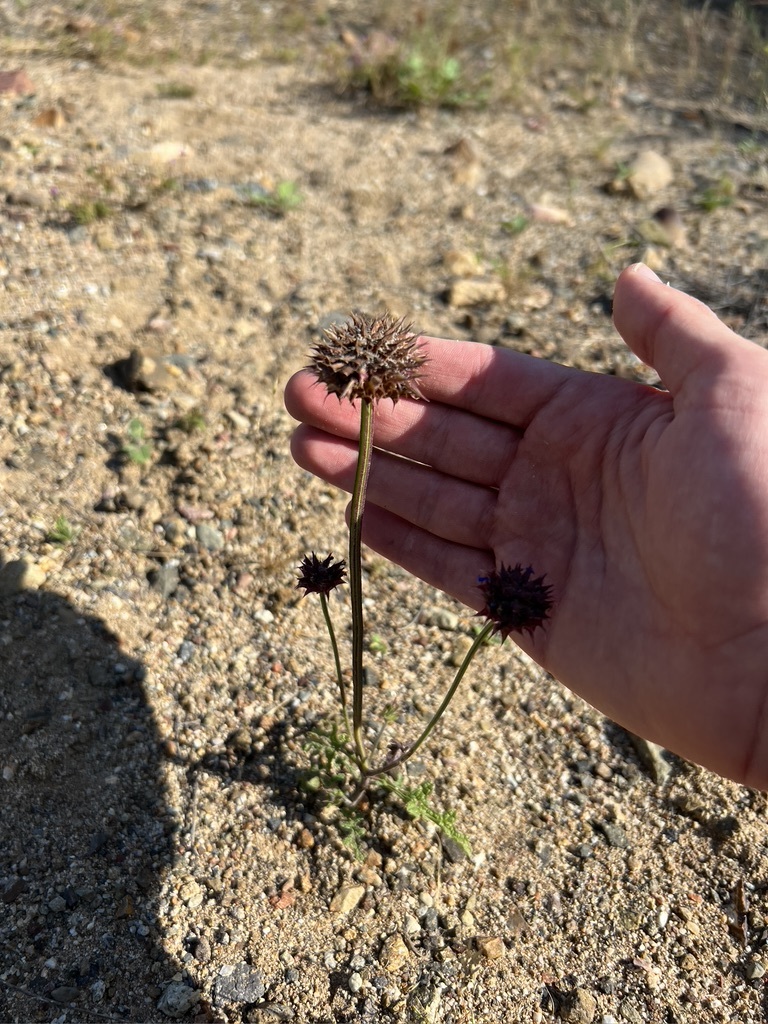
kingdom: Plantae
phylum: Tracheophyta
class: Magnoliopsida
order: Lamiales
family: Lamiaceae
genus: Salvia
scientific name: Salvia columbariae
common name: Chia
